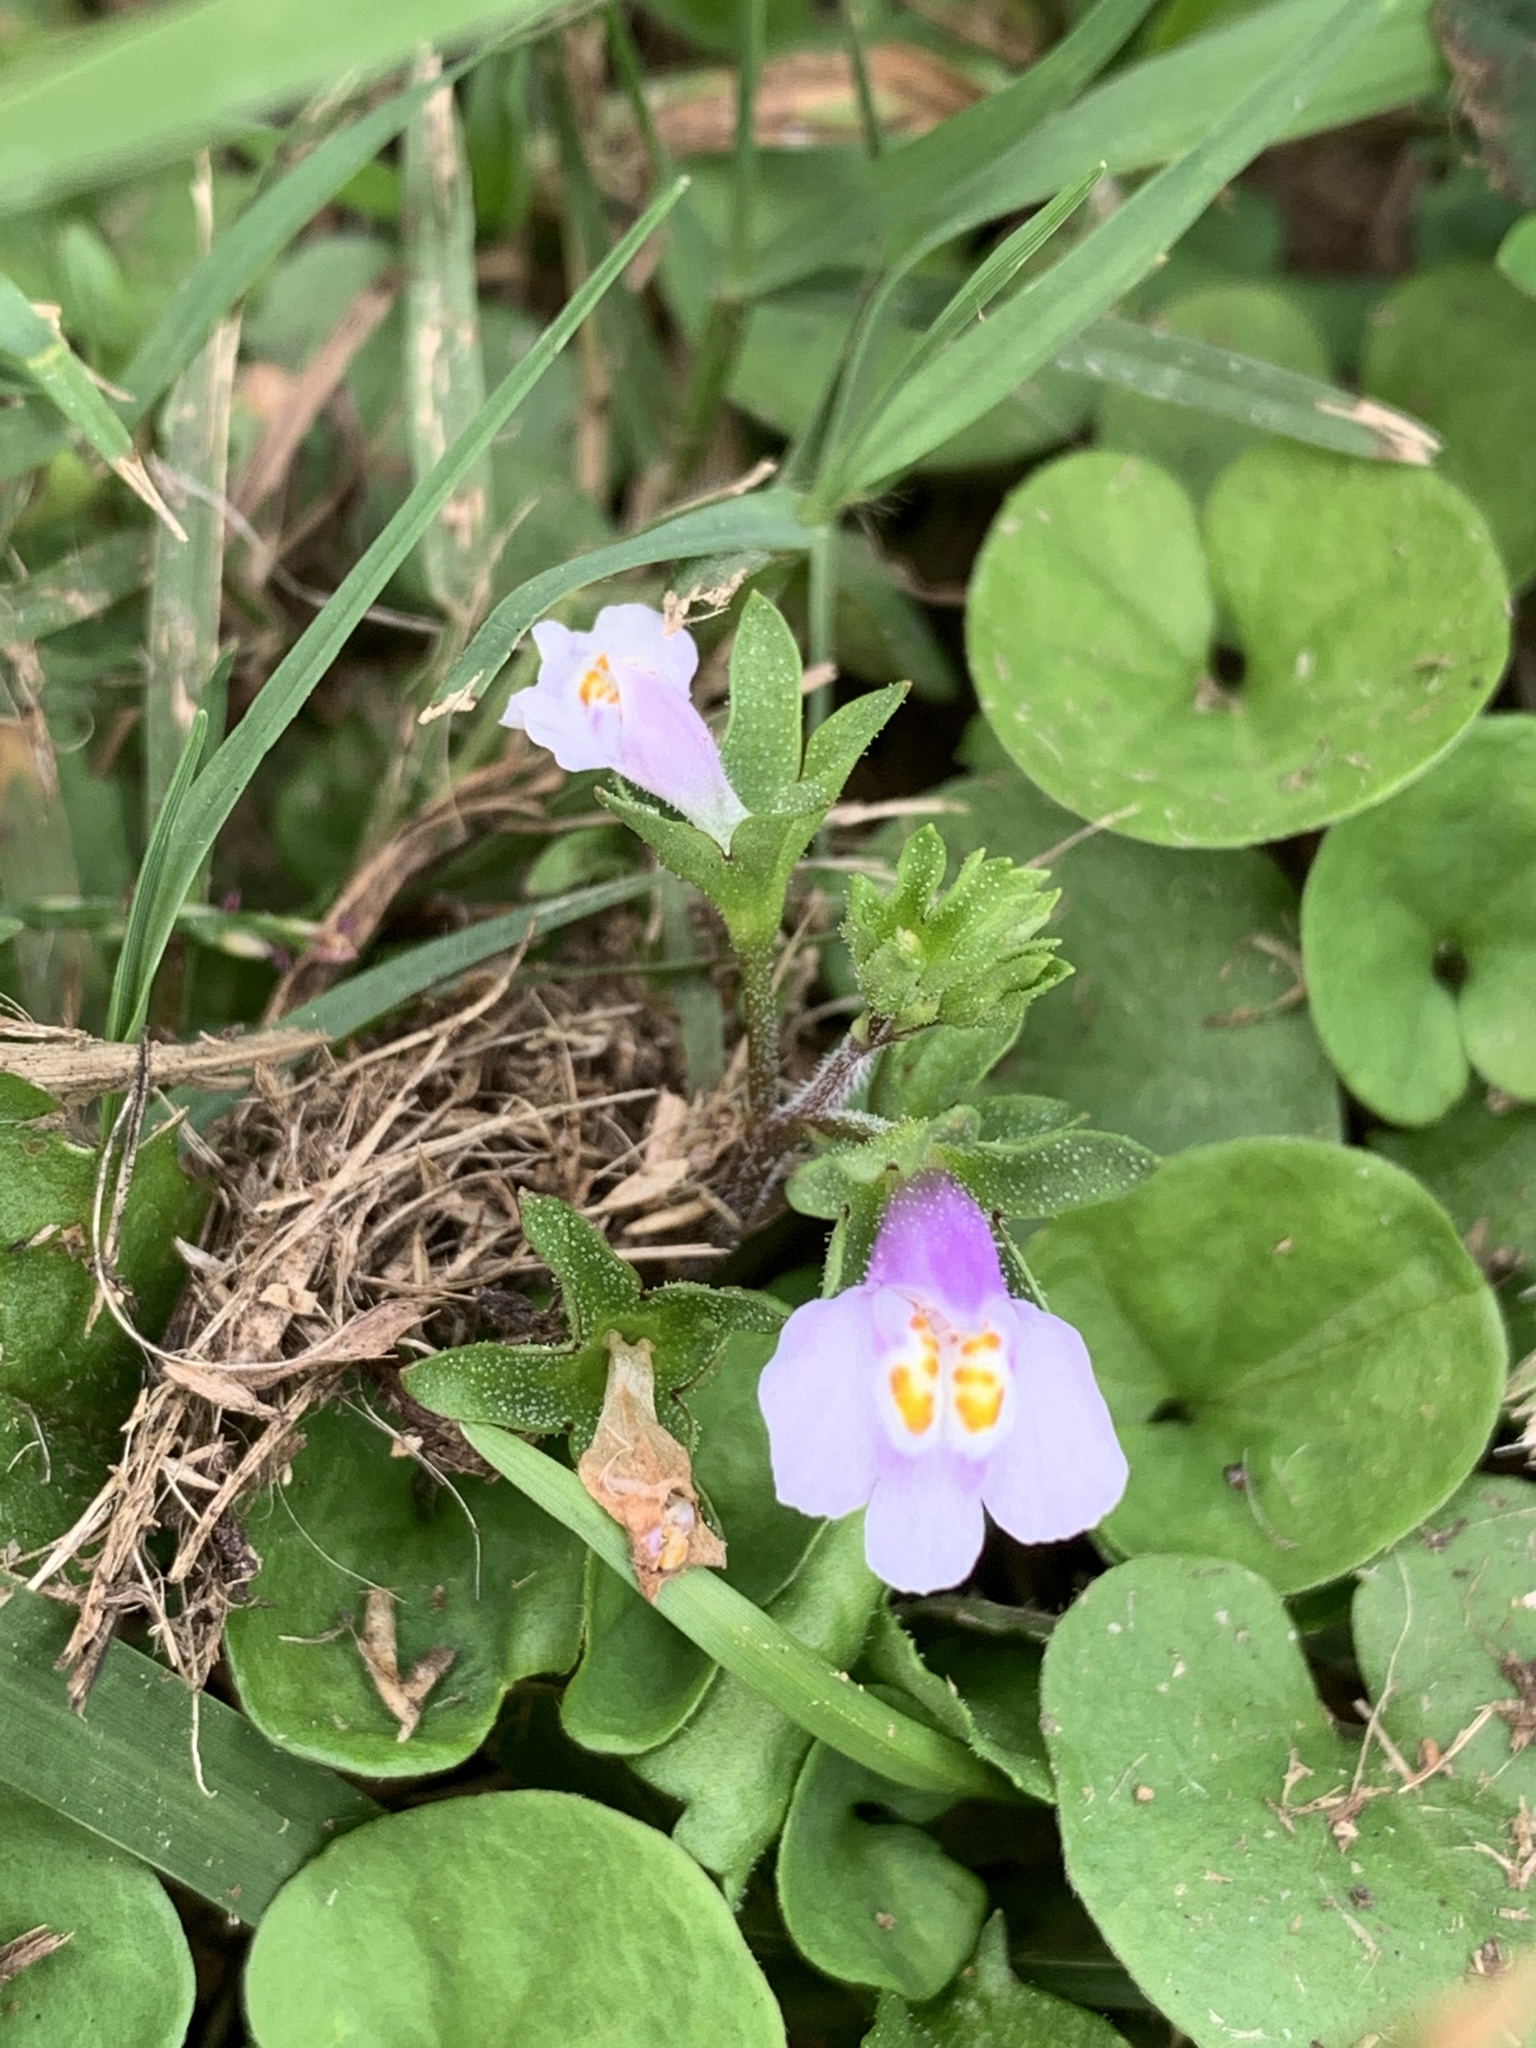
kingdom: Plantae
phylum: Tracheophyta
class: Magnoliopsida
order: Lamiales
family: Mazaceae
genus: Mazus
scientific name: Mazus pumilus
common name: Japanese mazus
